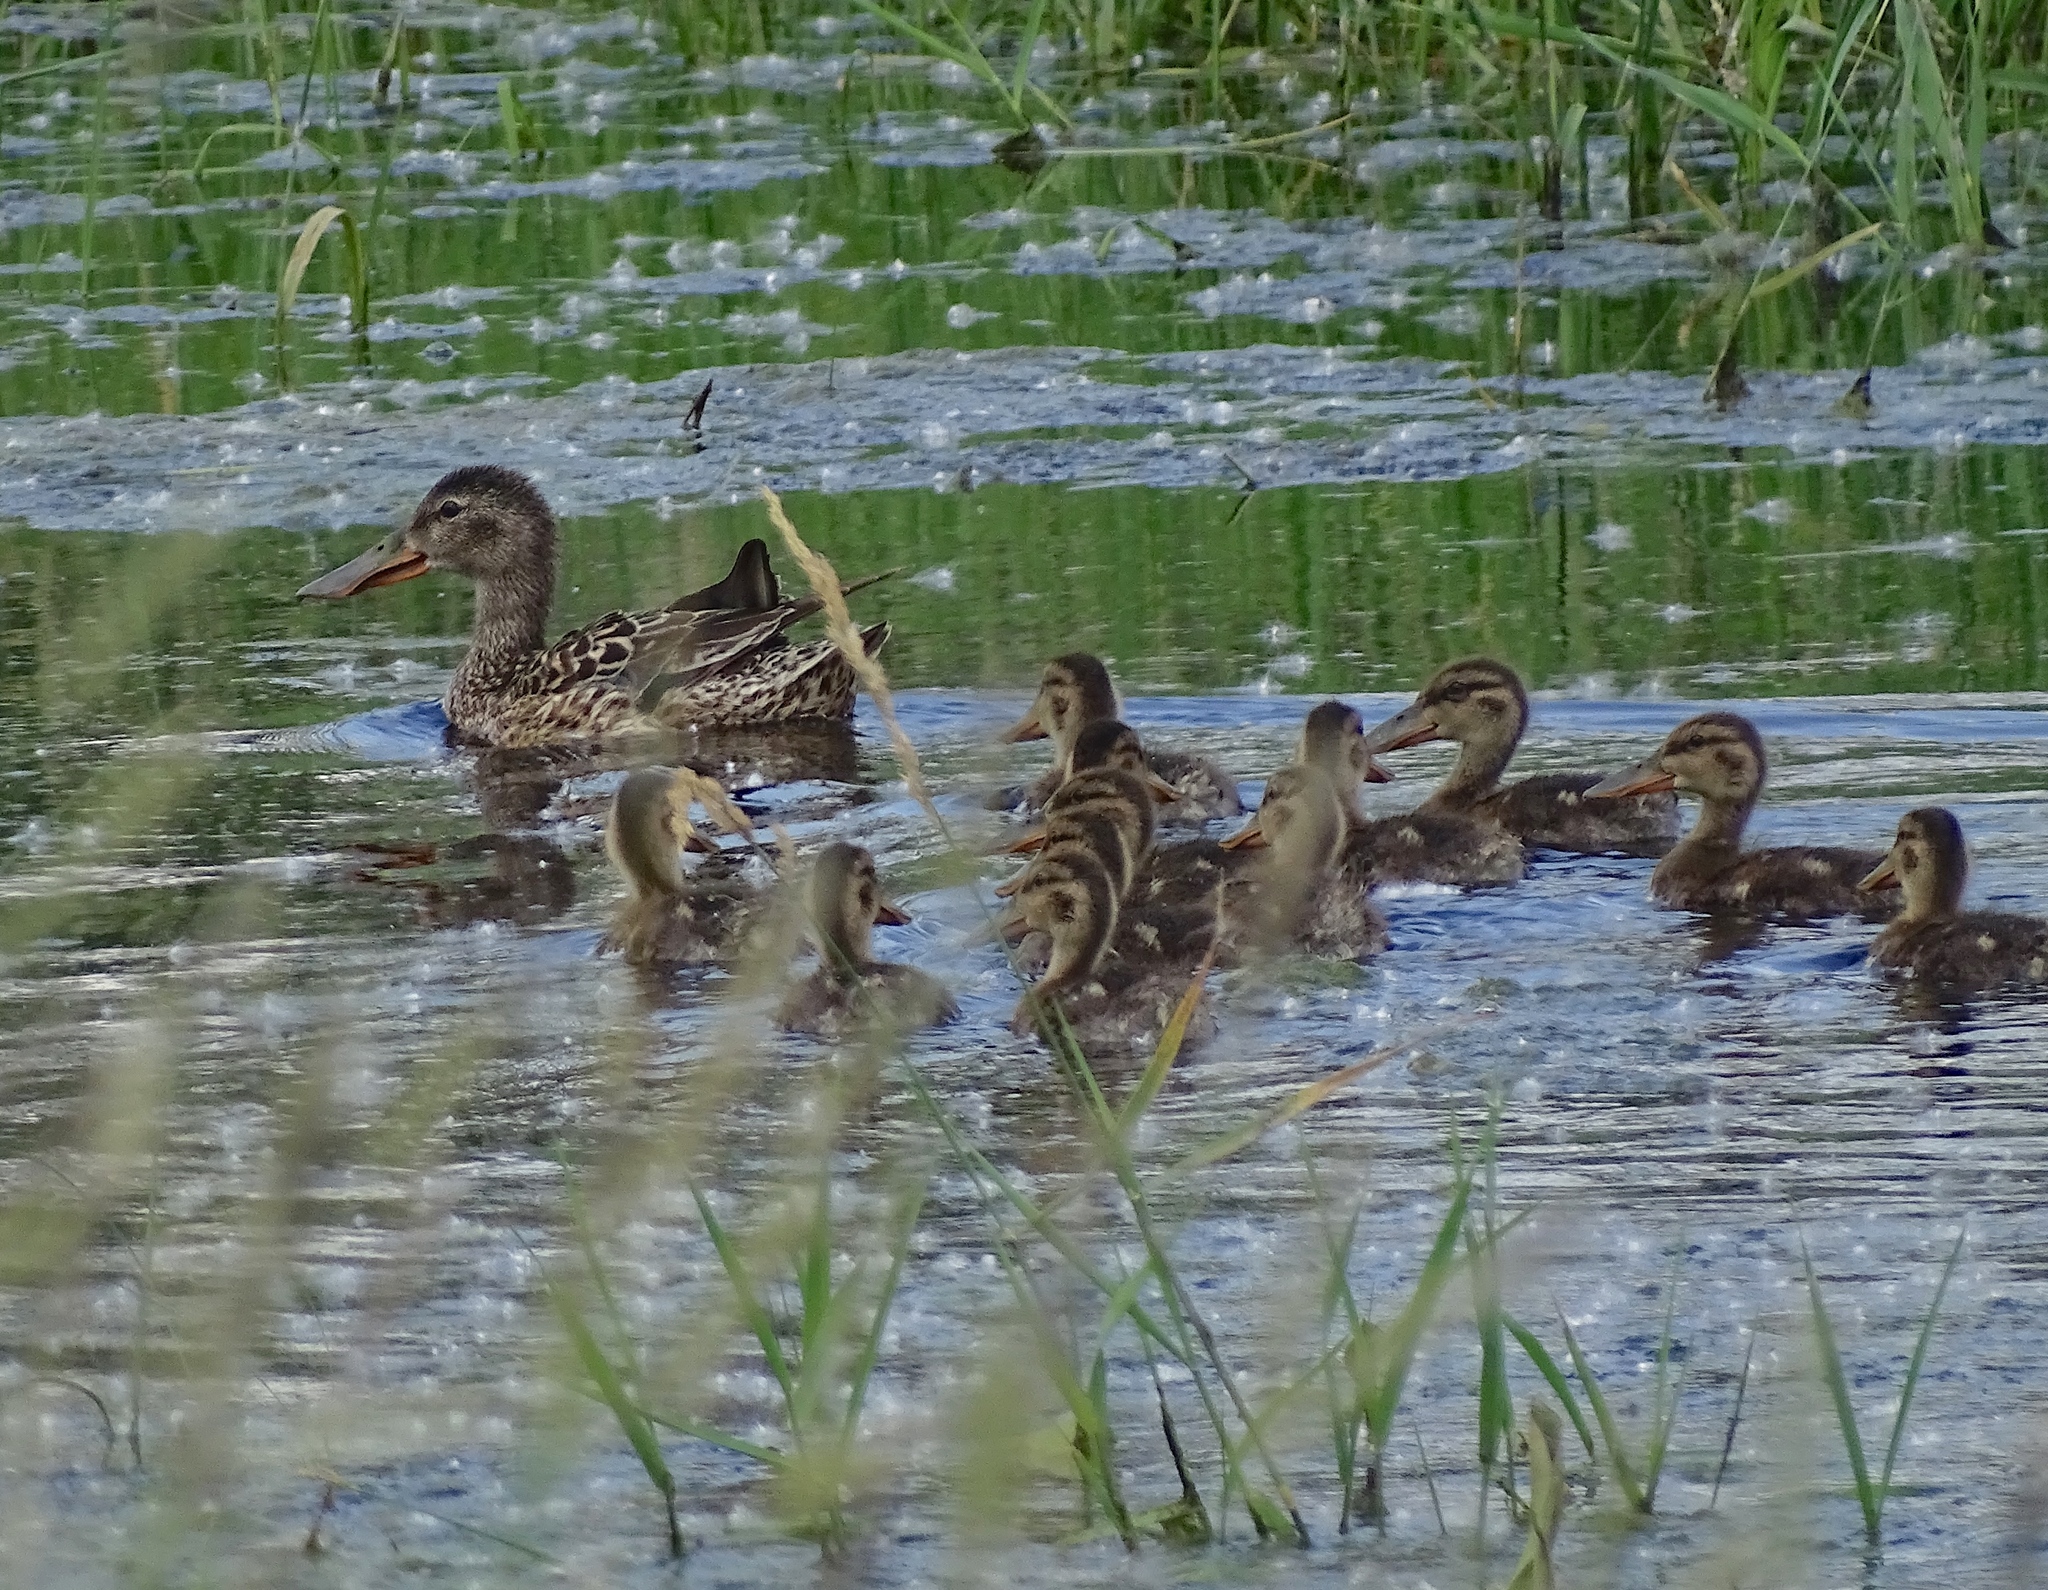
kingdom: Animalia
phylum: Chordata
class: Aves
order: Anseriformes
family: Anatidae
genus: Spatula
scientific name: Spatula clypeata
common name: Northern shoveler
